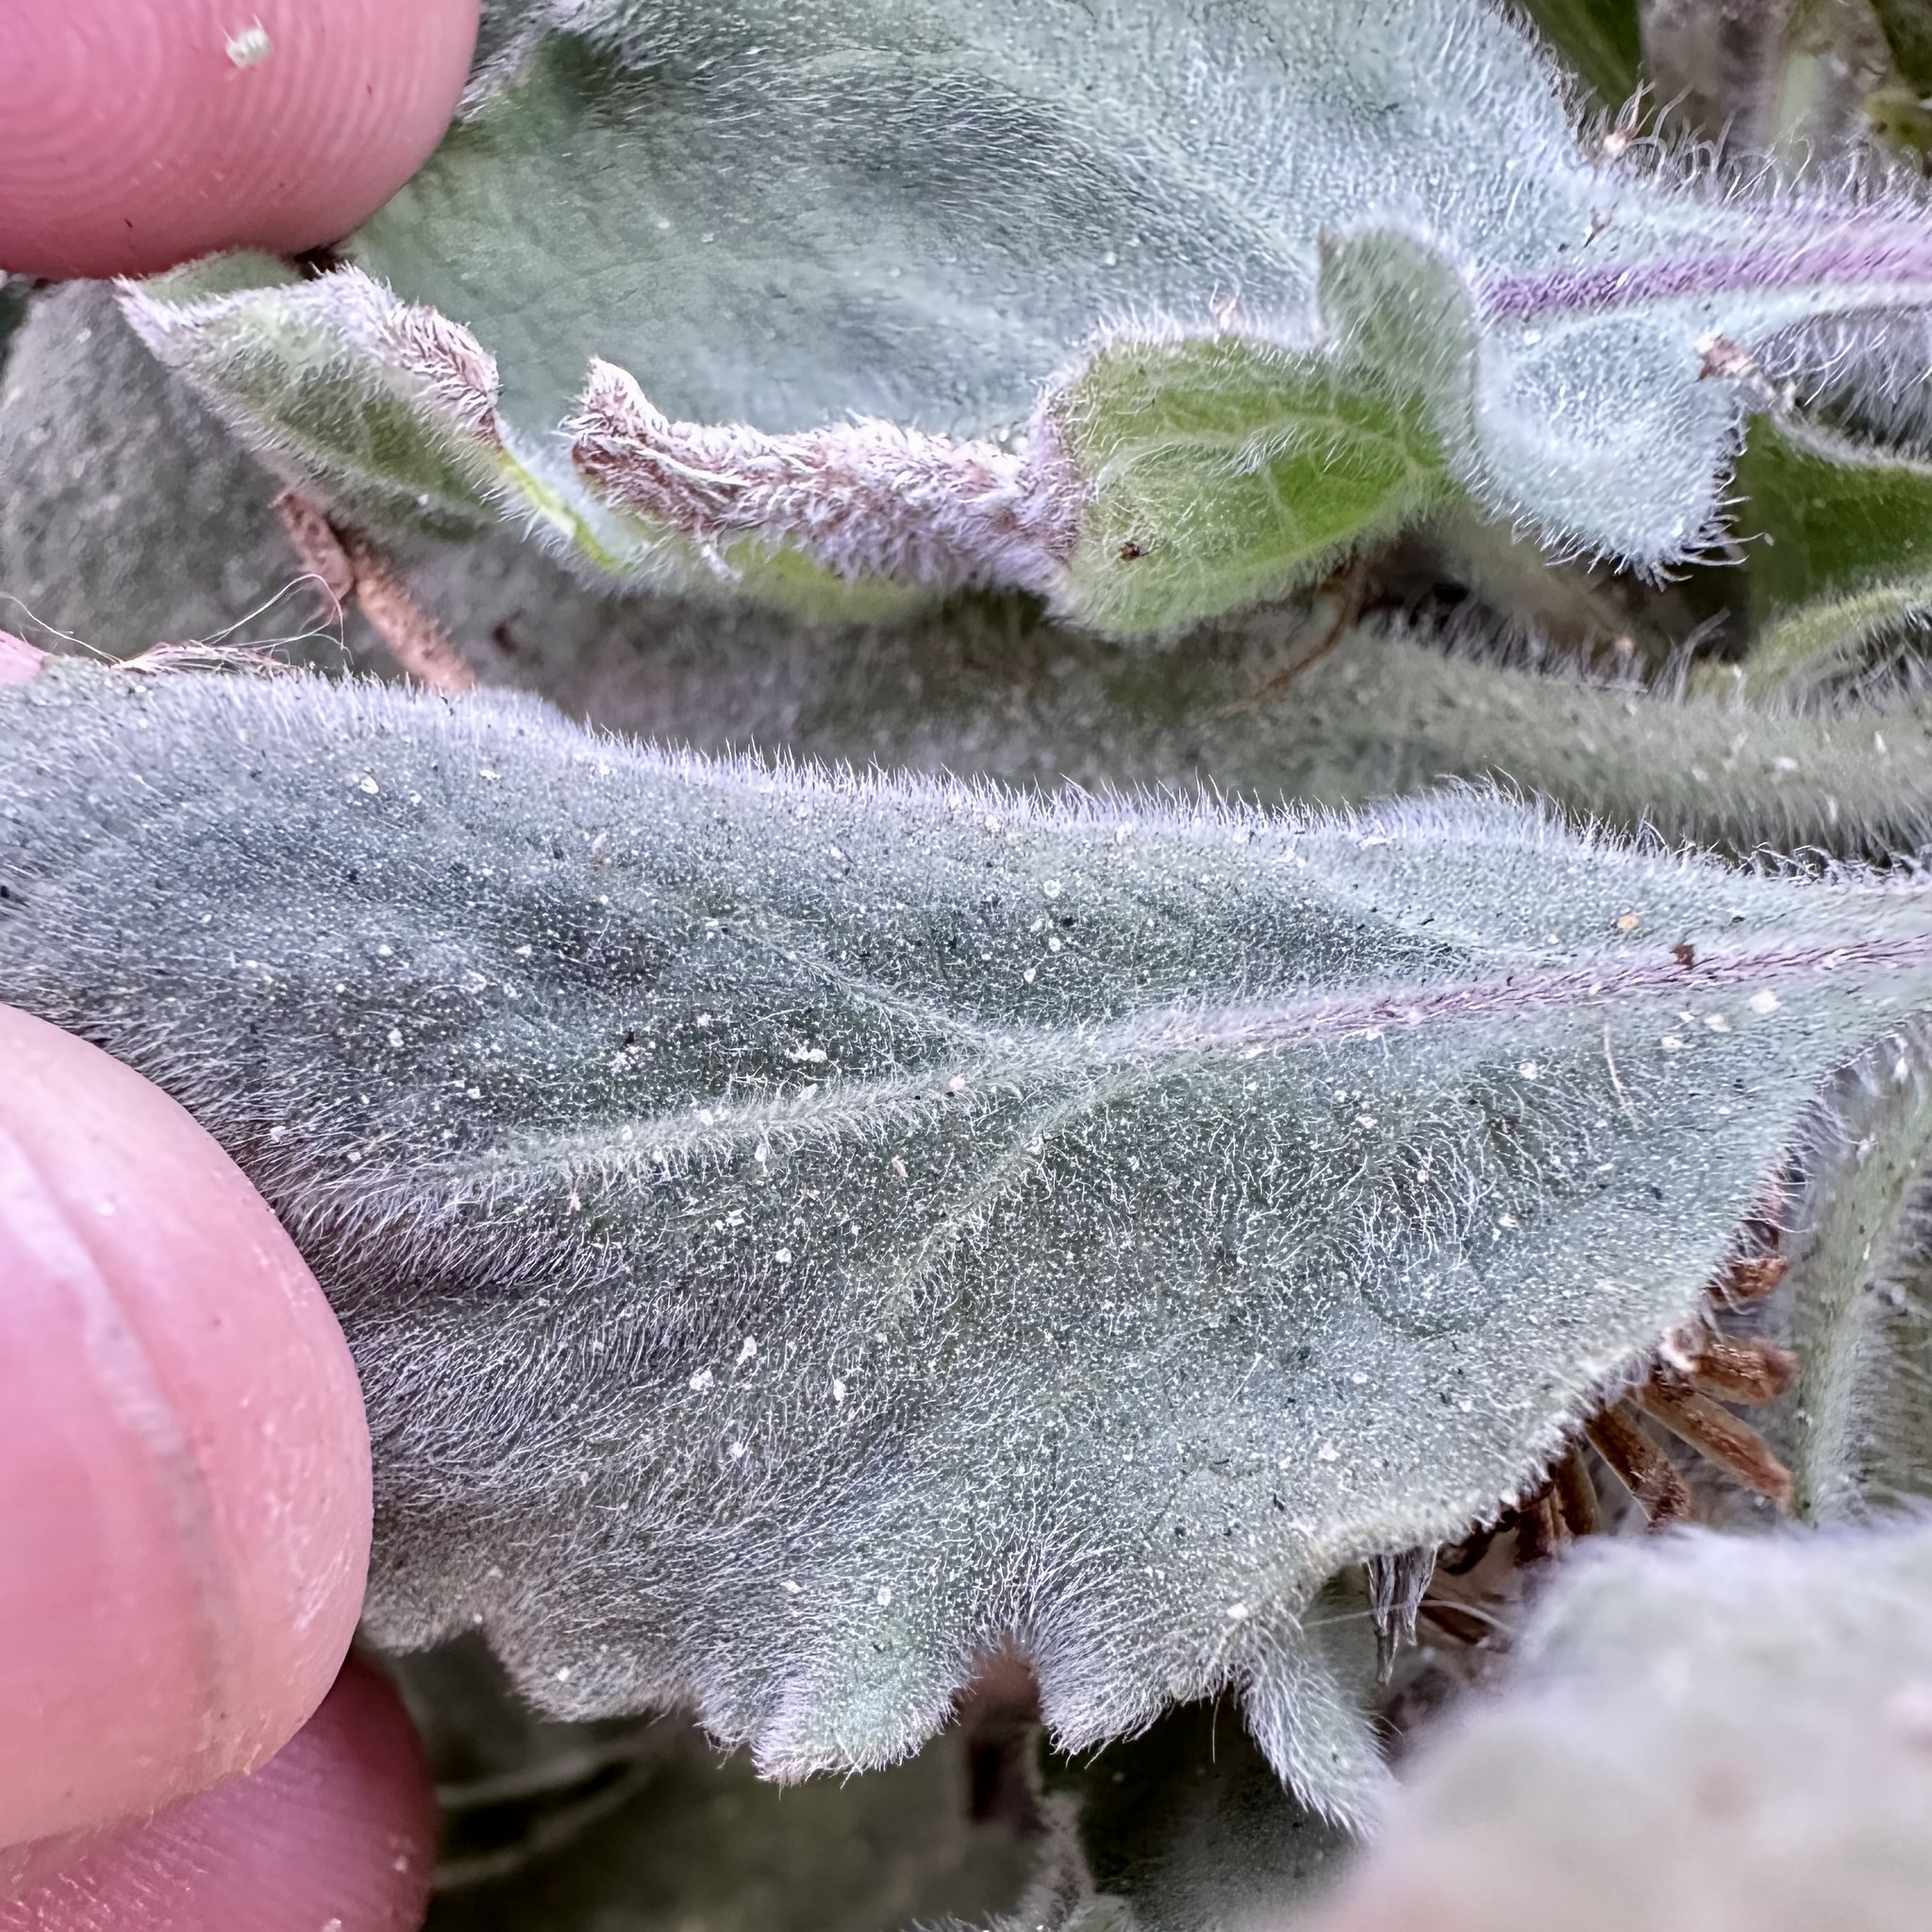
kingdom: Plantae
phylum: Tracheophyta
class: Magnoliopsida
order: Asterales
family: Asteraceae
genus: Heterotheca
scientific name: Heterotheca grandiflora
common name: Telegraphweed
